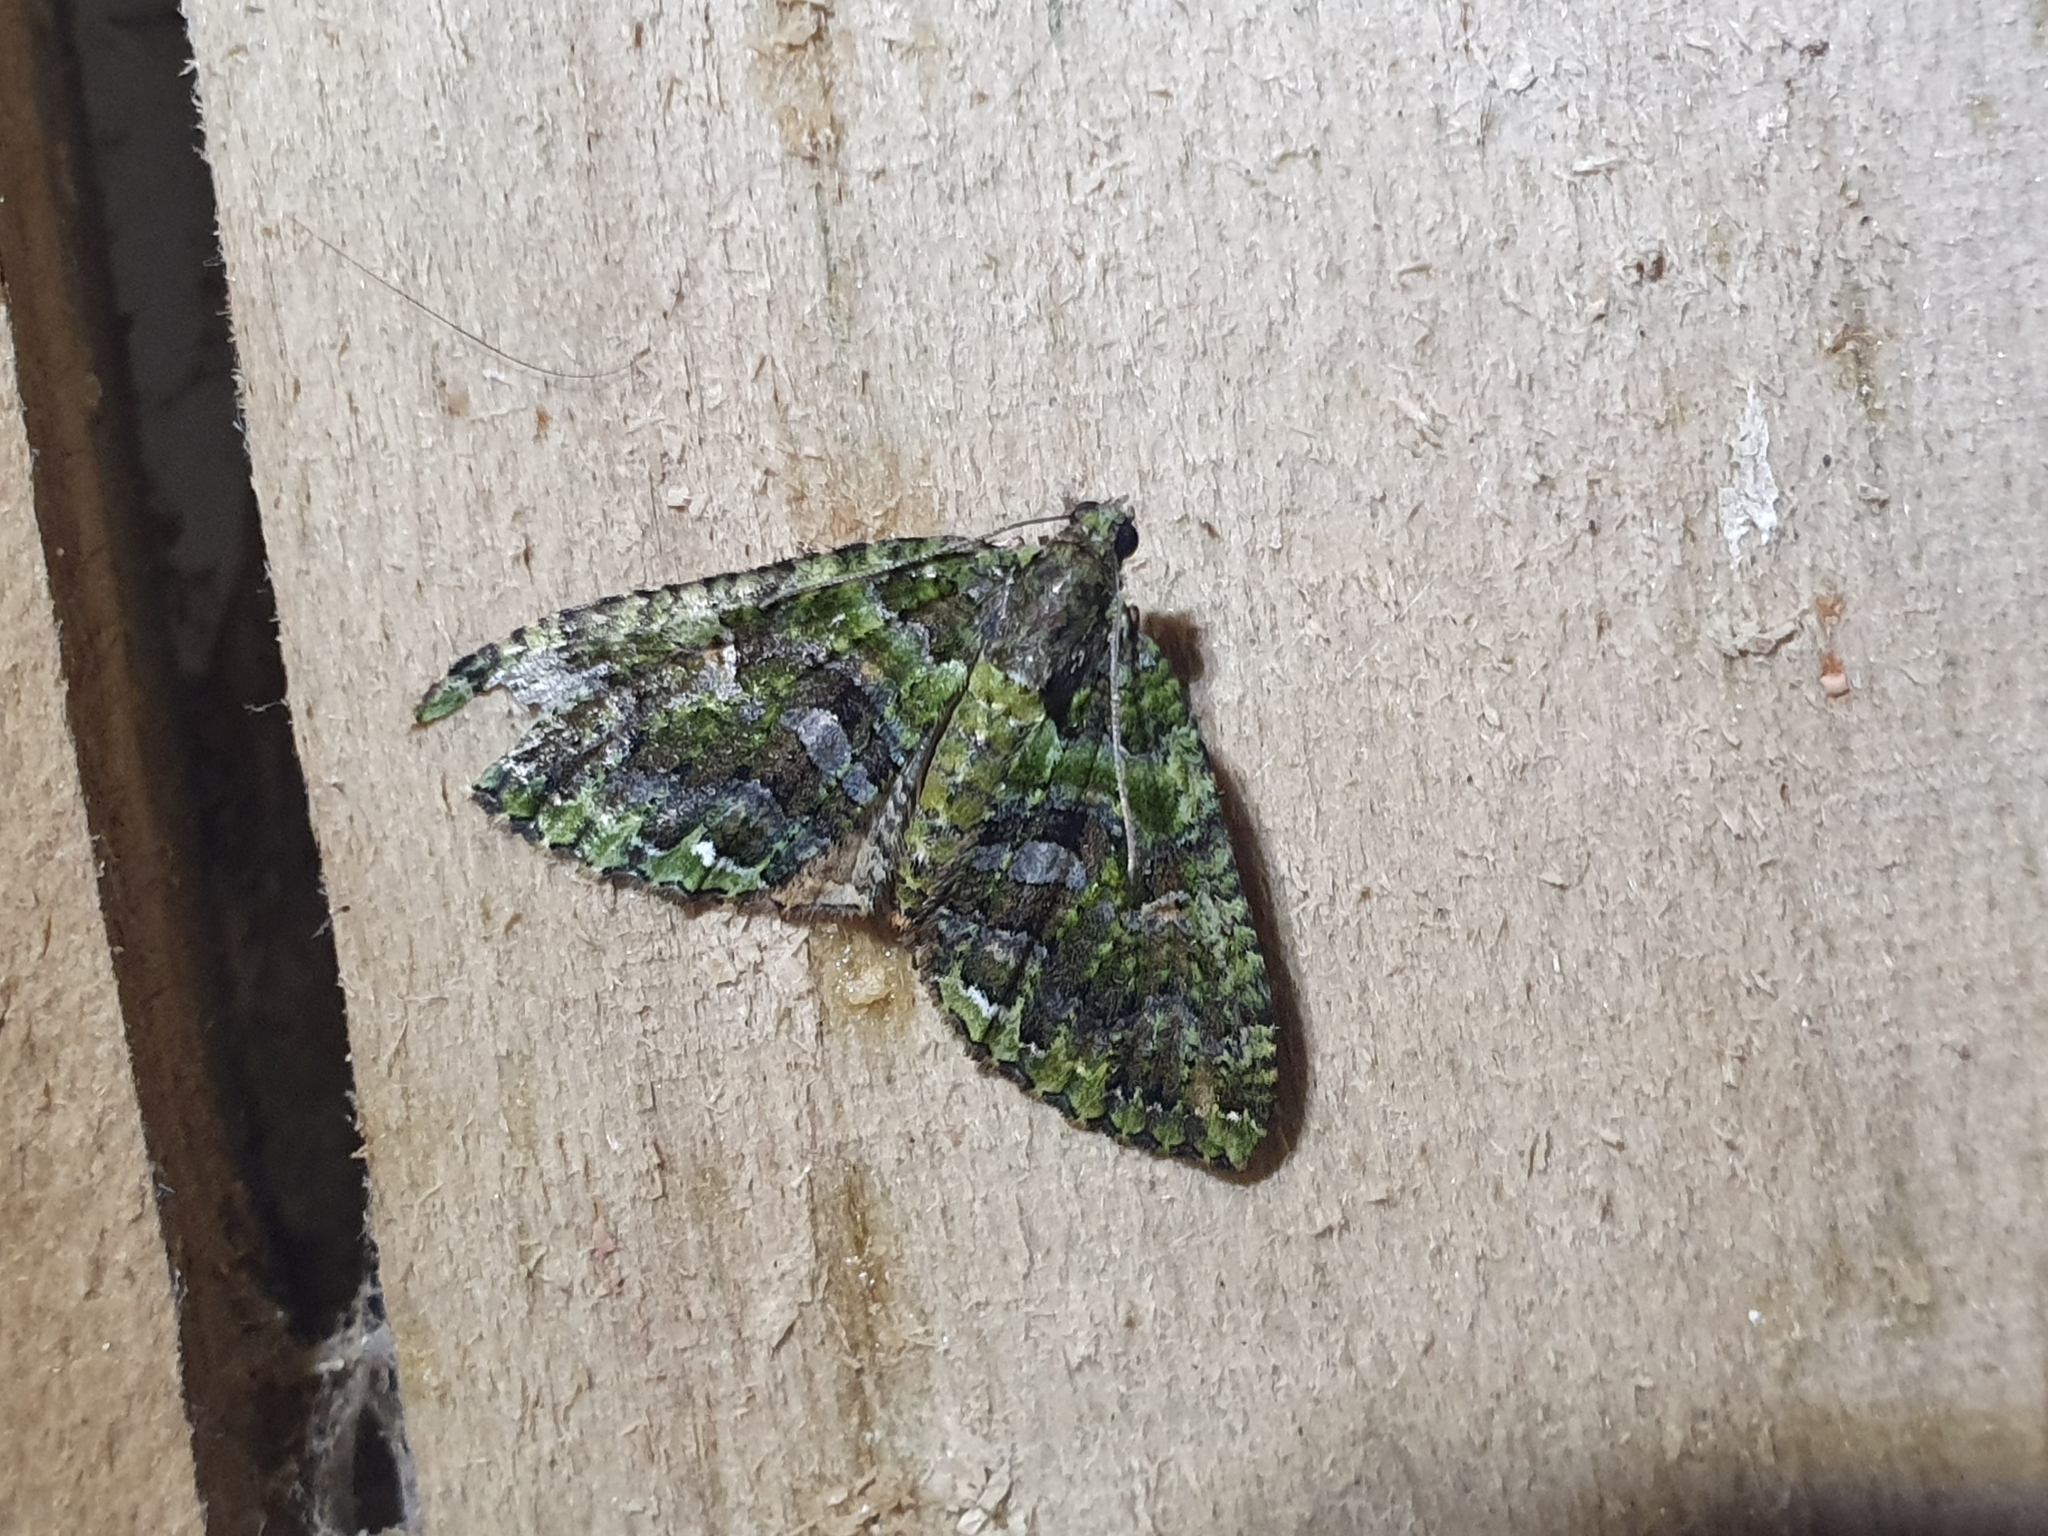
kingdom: Animalia
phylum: Arthropoda
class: Insecta
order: Lepidoptera
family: Geometridae
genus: Austrocidaria
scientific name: Austrocidaria similata
